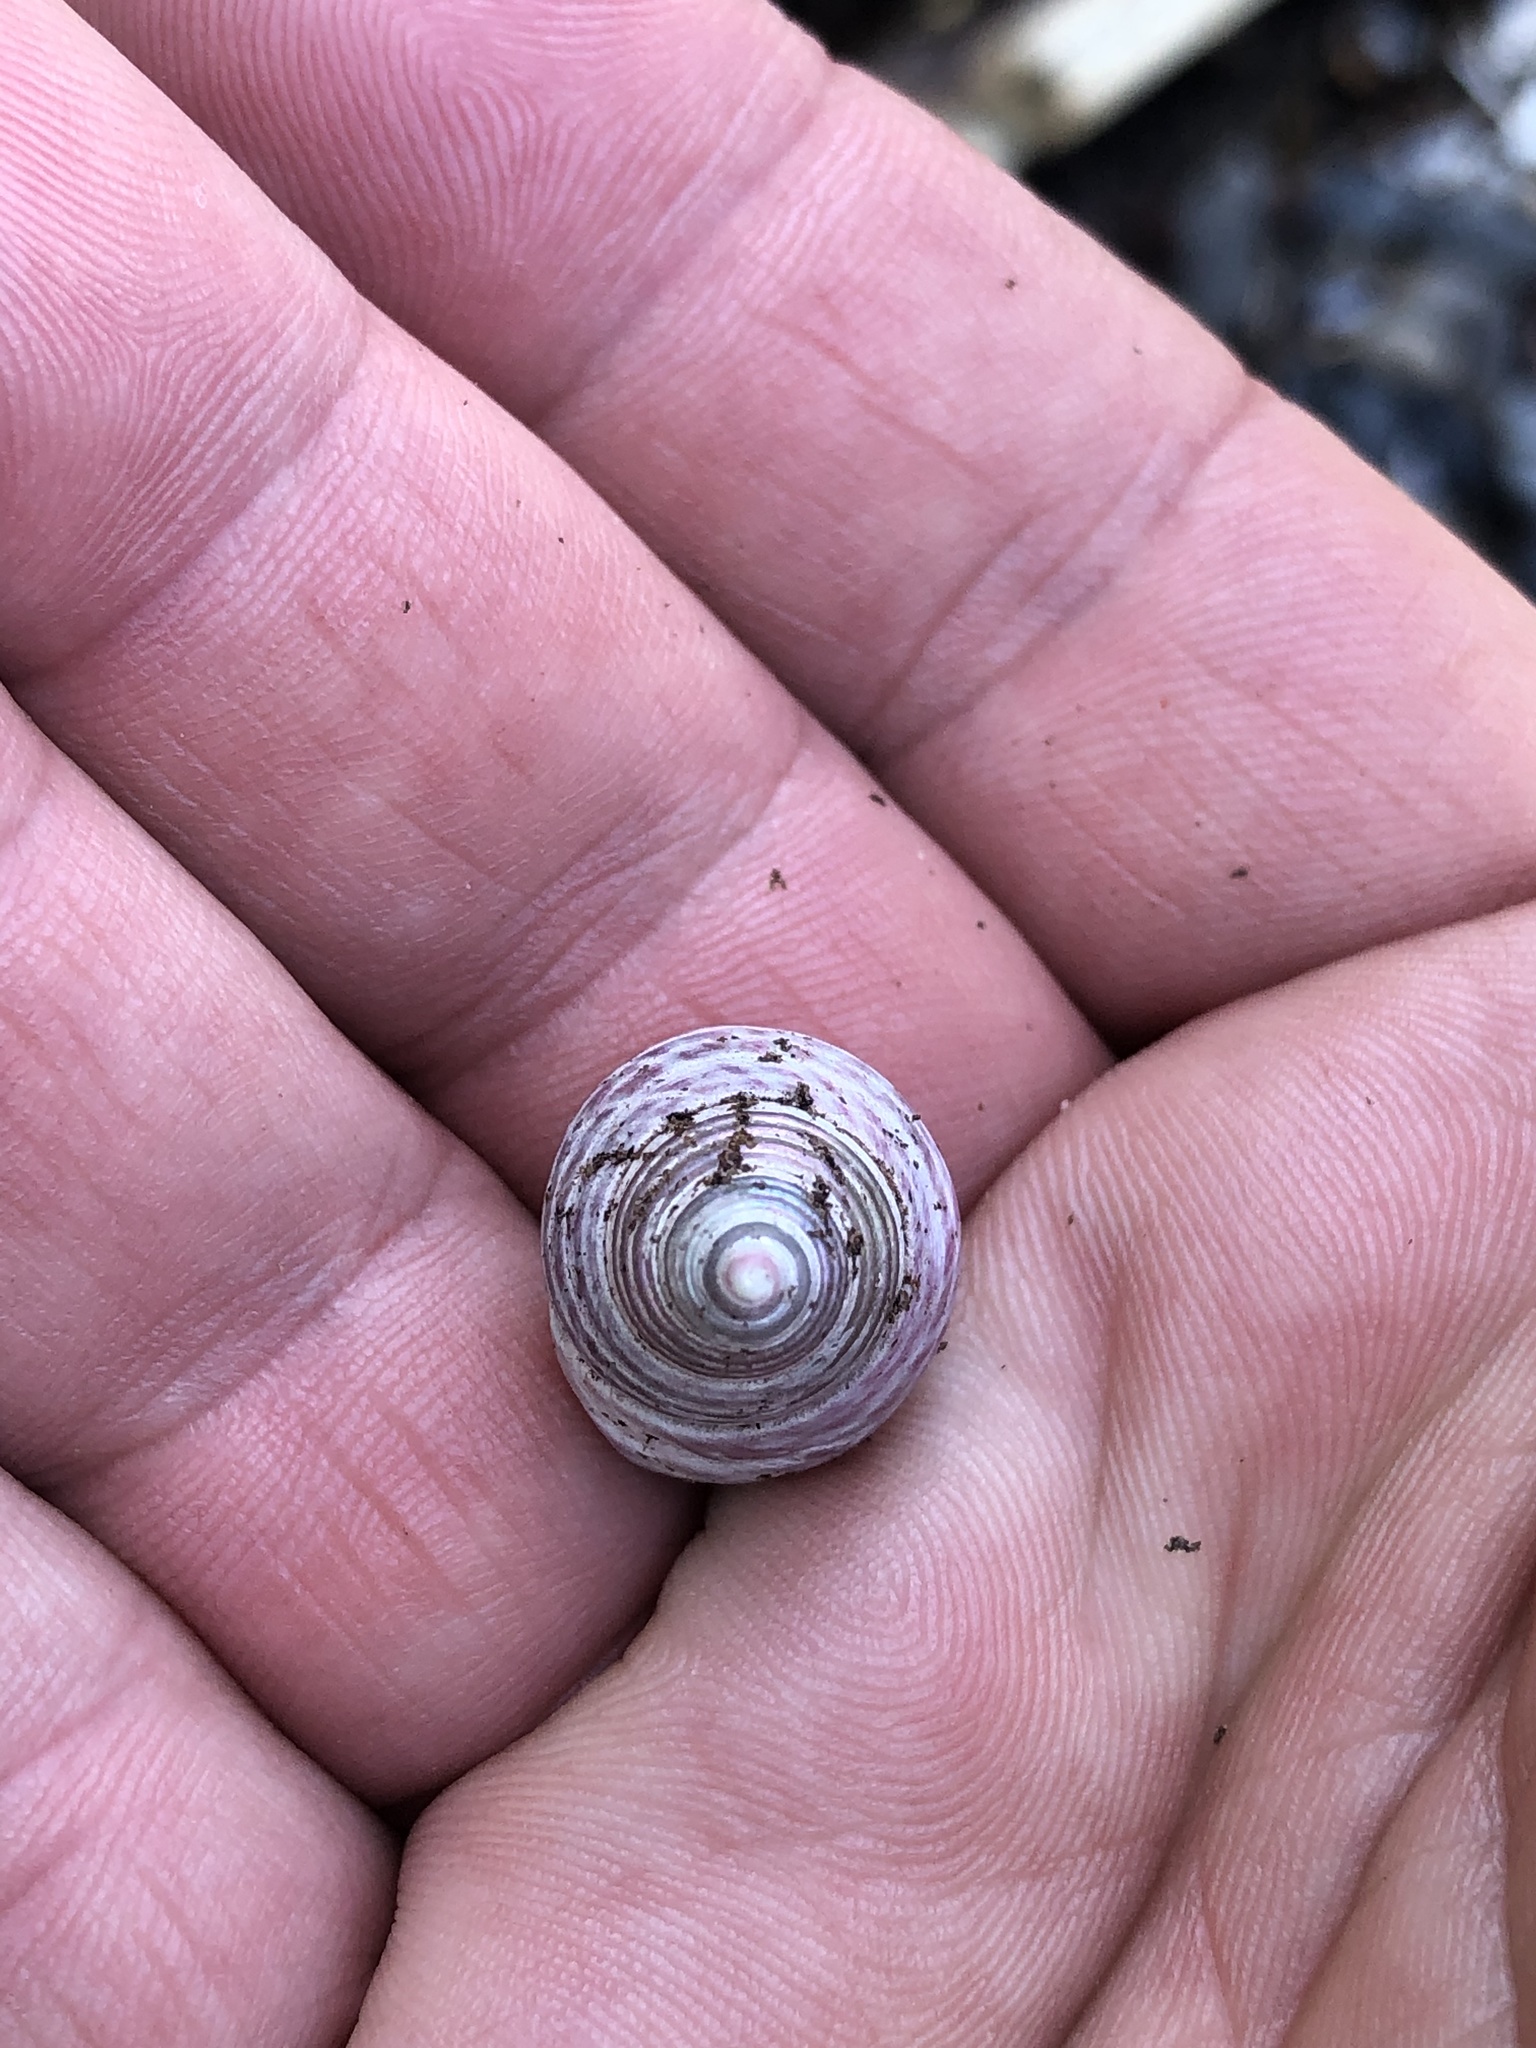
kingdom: Animalia
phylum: Mollusca
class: Gastropoda
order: Trochida
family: Trochidae
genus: Micrelenchus
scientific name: Micrelenchus purpureus
